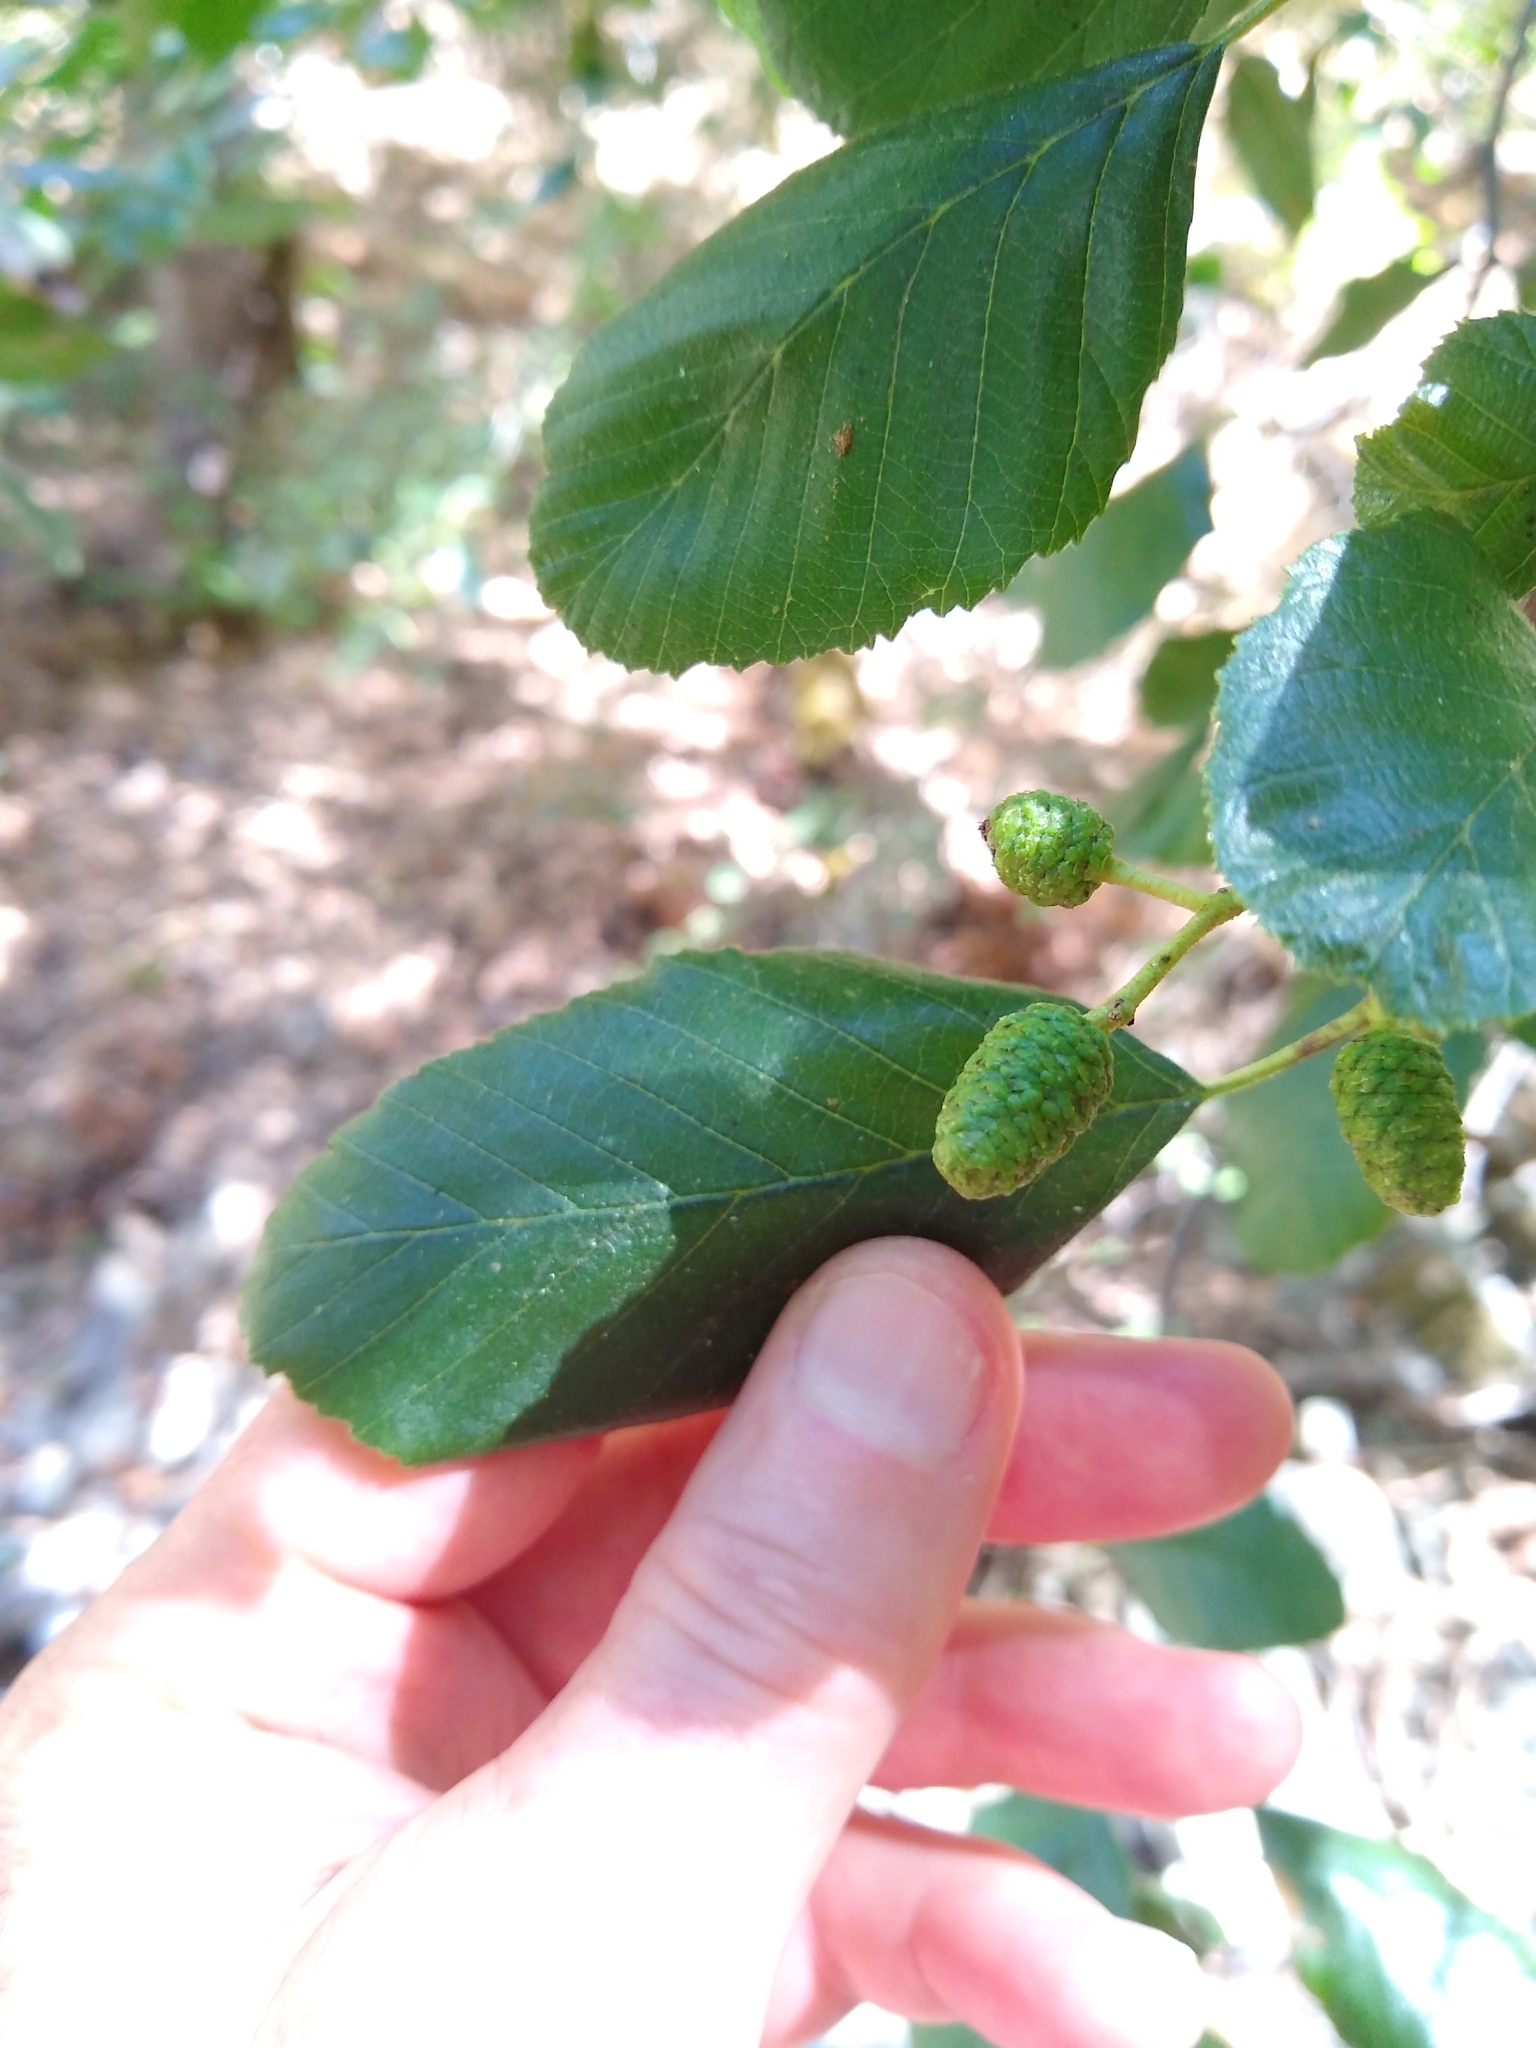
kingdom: Plantae
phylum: Tracheophyta
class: Magnoliopsida
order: Fagales
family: Betulaceae
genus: Alnus
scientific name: Alnus rhombifolia
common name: California alder
